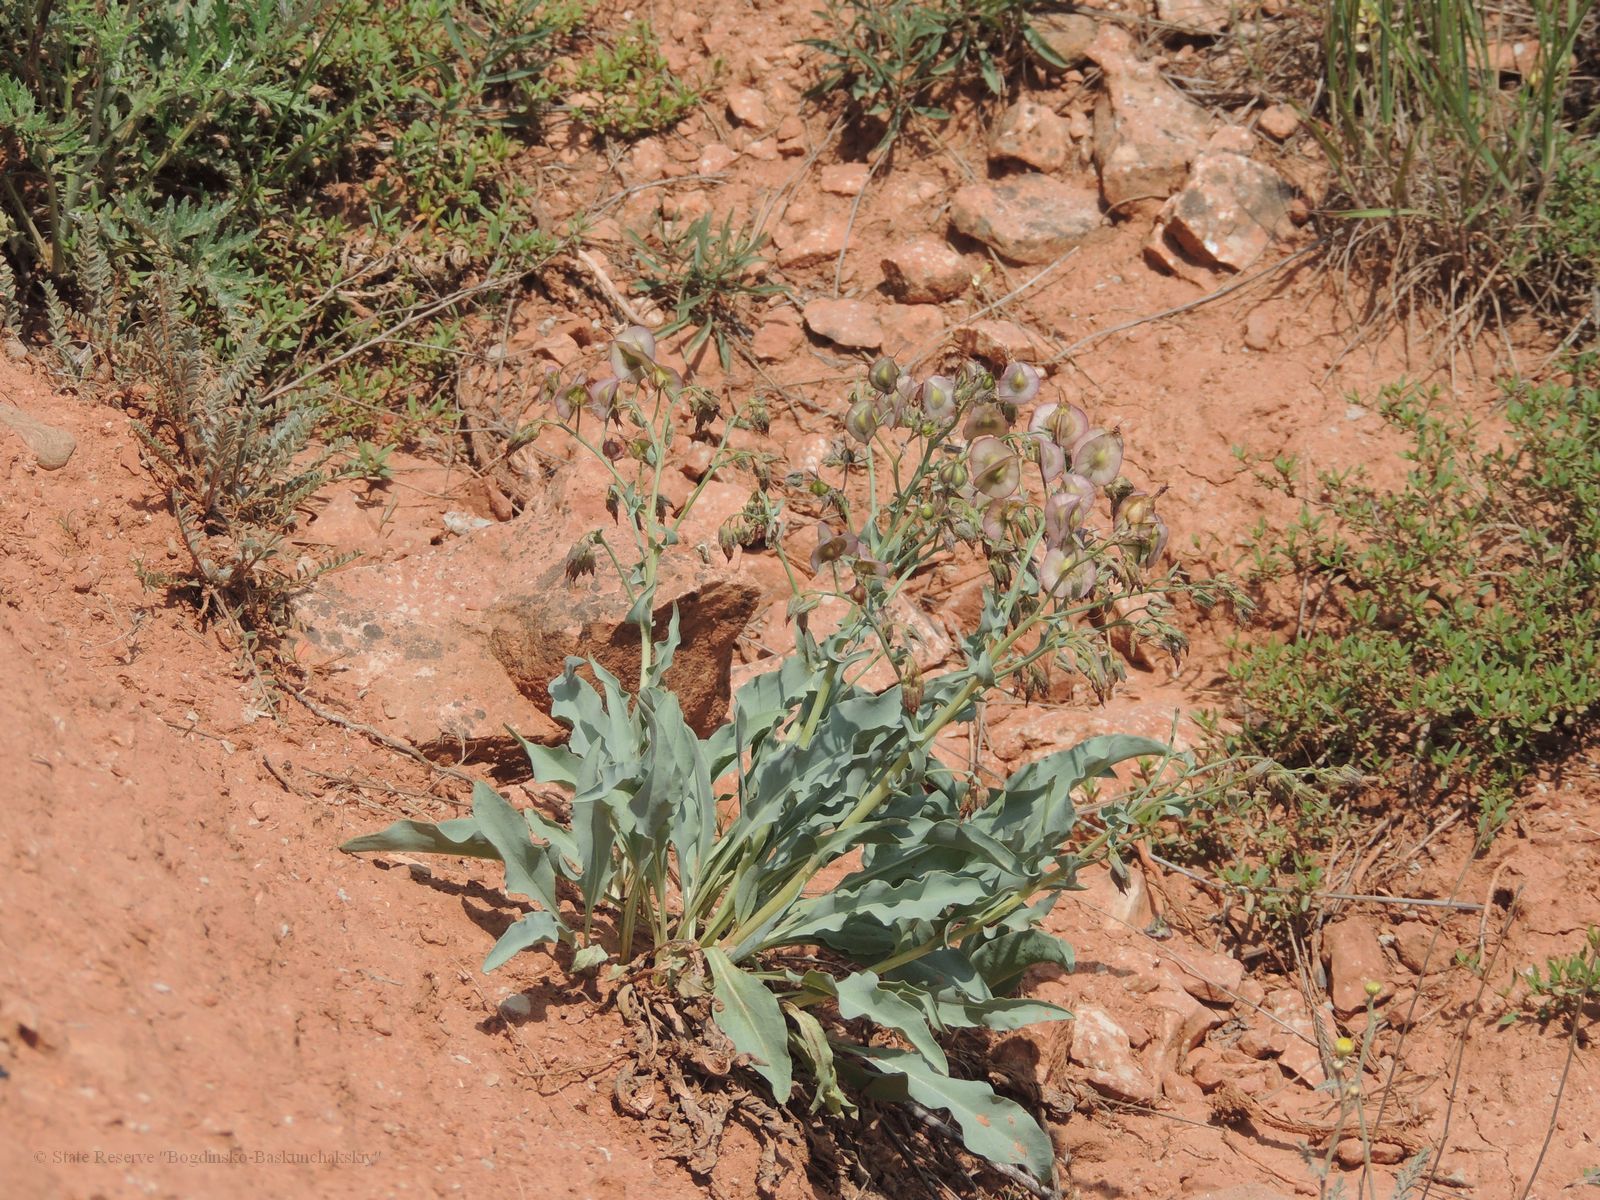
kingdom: Plantae
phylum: Tracheophyta
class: Magnoliopsida
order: Boraginales
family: Boraginaceae
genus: Rindera
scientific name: Rindera tetraspis
